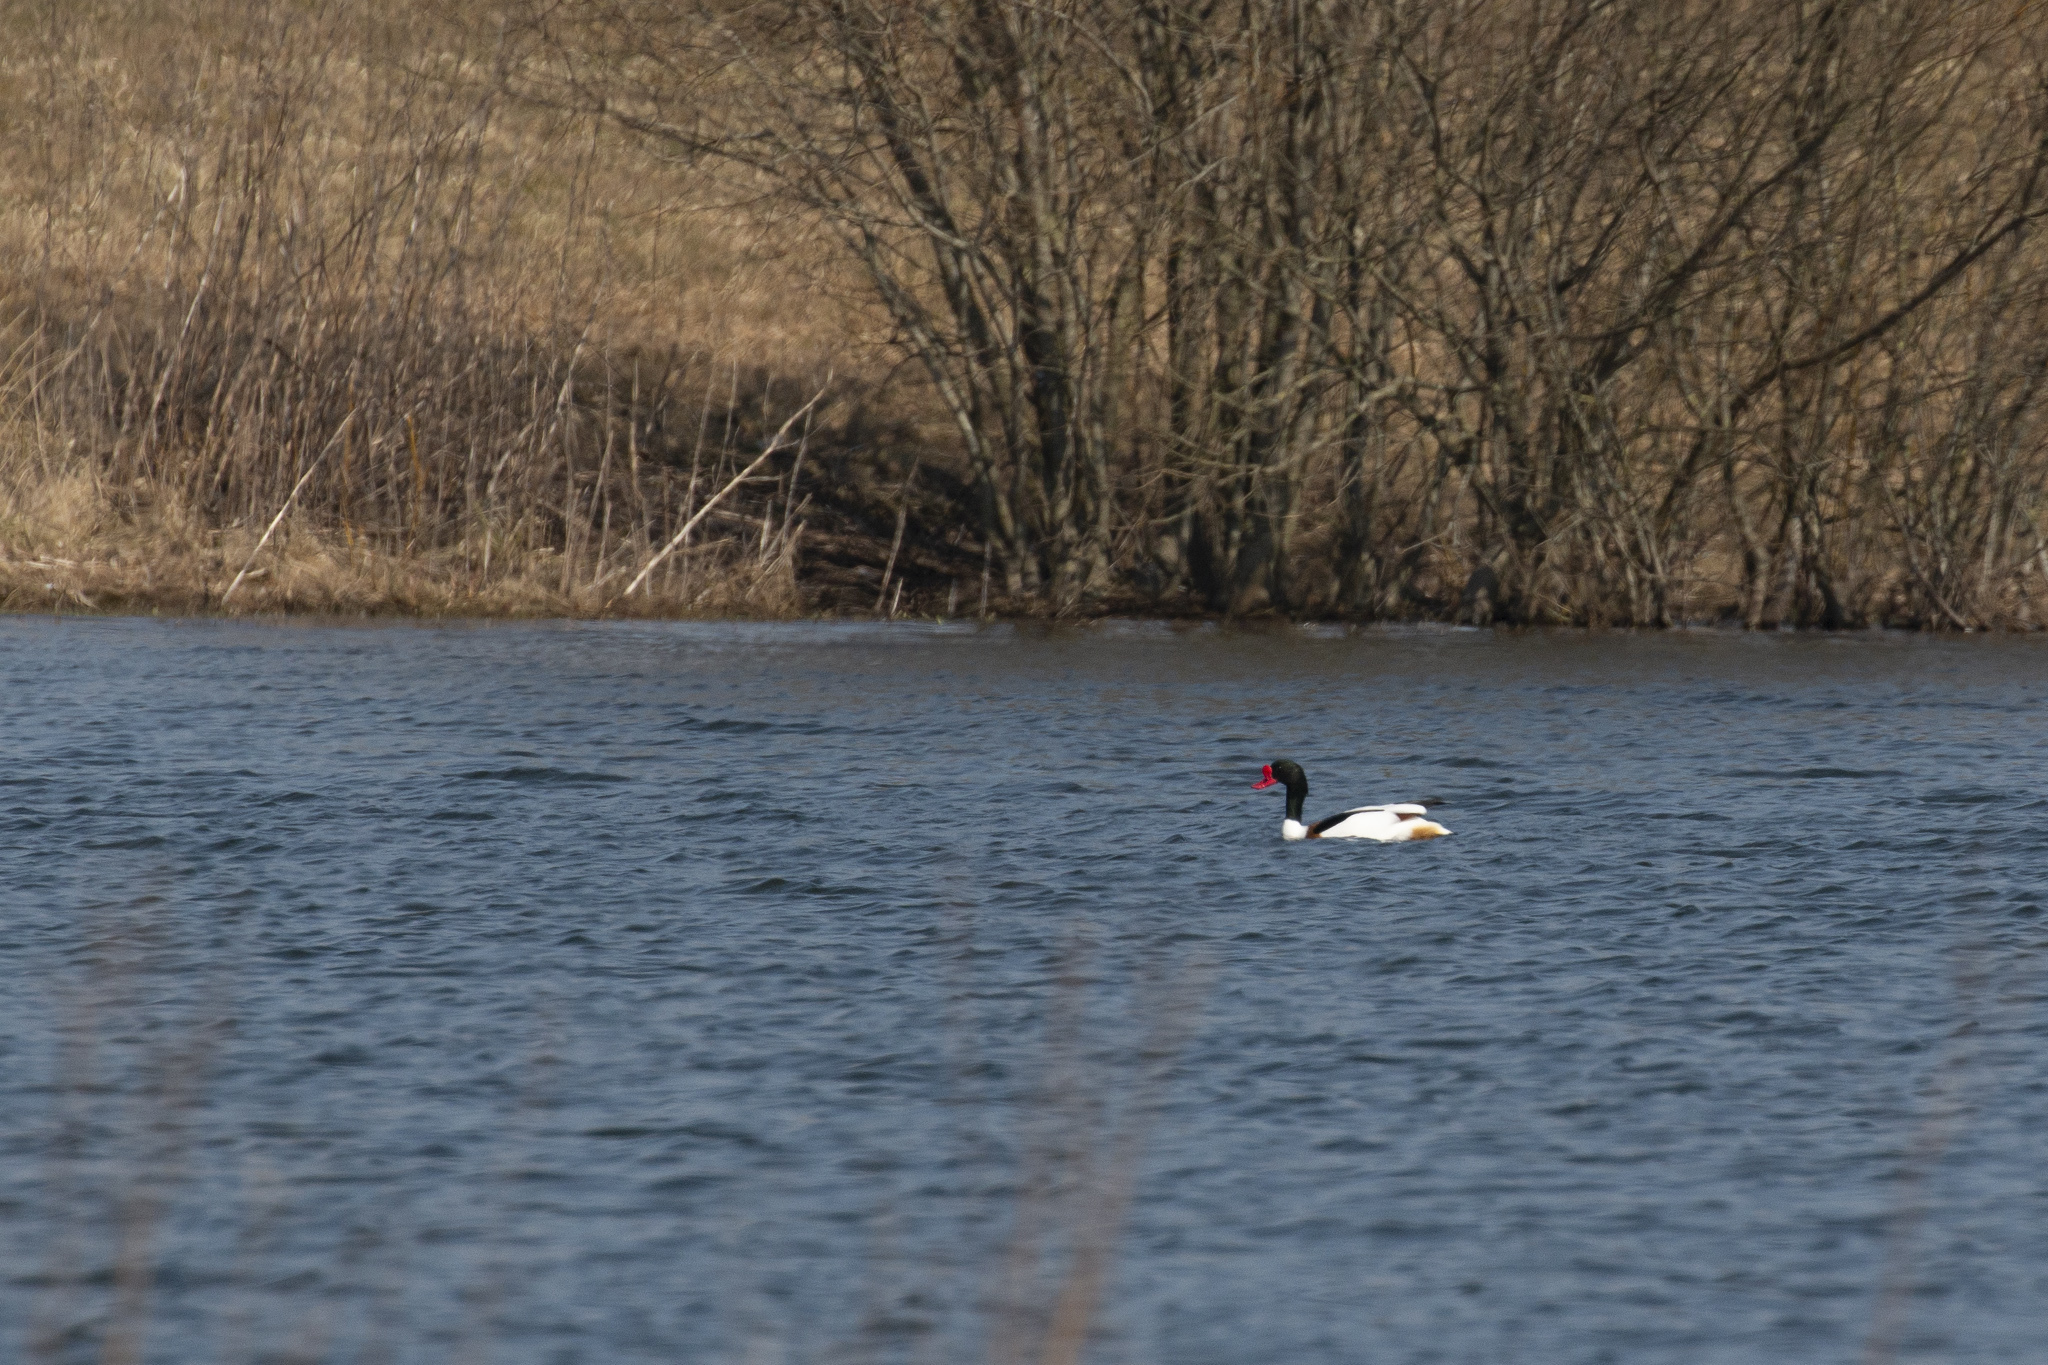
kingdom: Animalia
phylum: Chordata
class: Aves
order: Anseriformes
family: Anatidae
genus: Tadorna
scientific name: Tadorna tadorna
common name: Common shelduck
